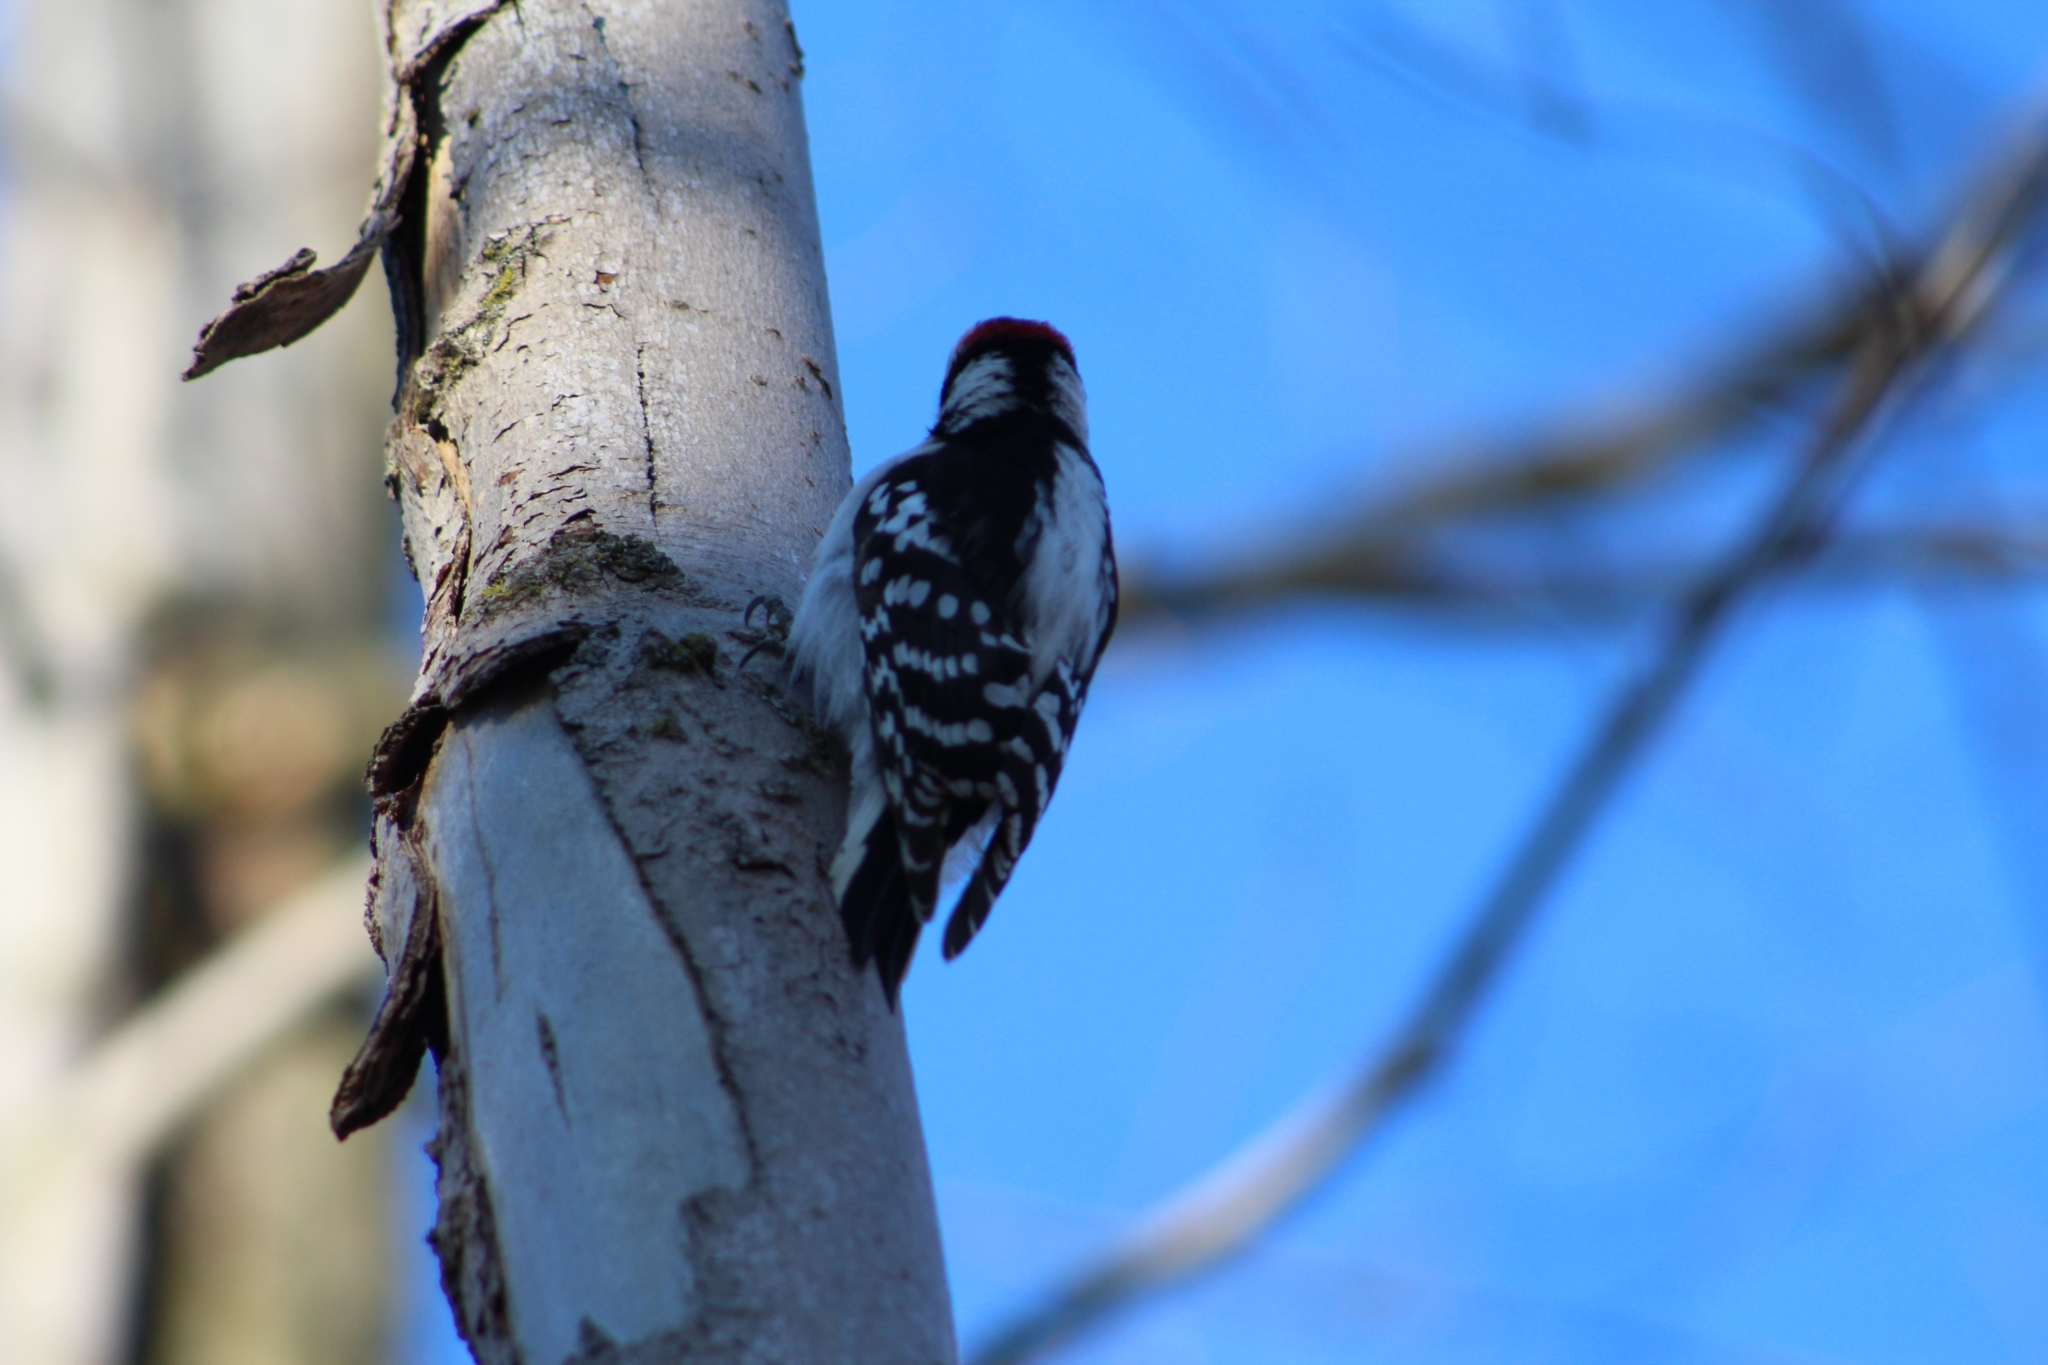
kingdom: Animalia
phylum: Chordata
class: Aves
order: Piciformes
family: Picidae
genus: Dryobates
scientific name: Dryobates pubescens
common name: Downy woodpecker
